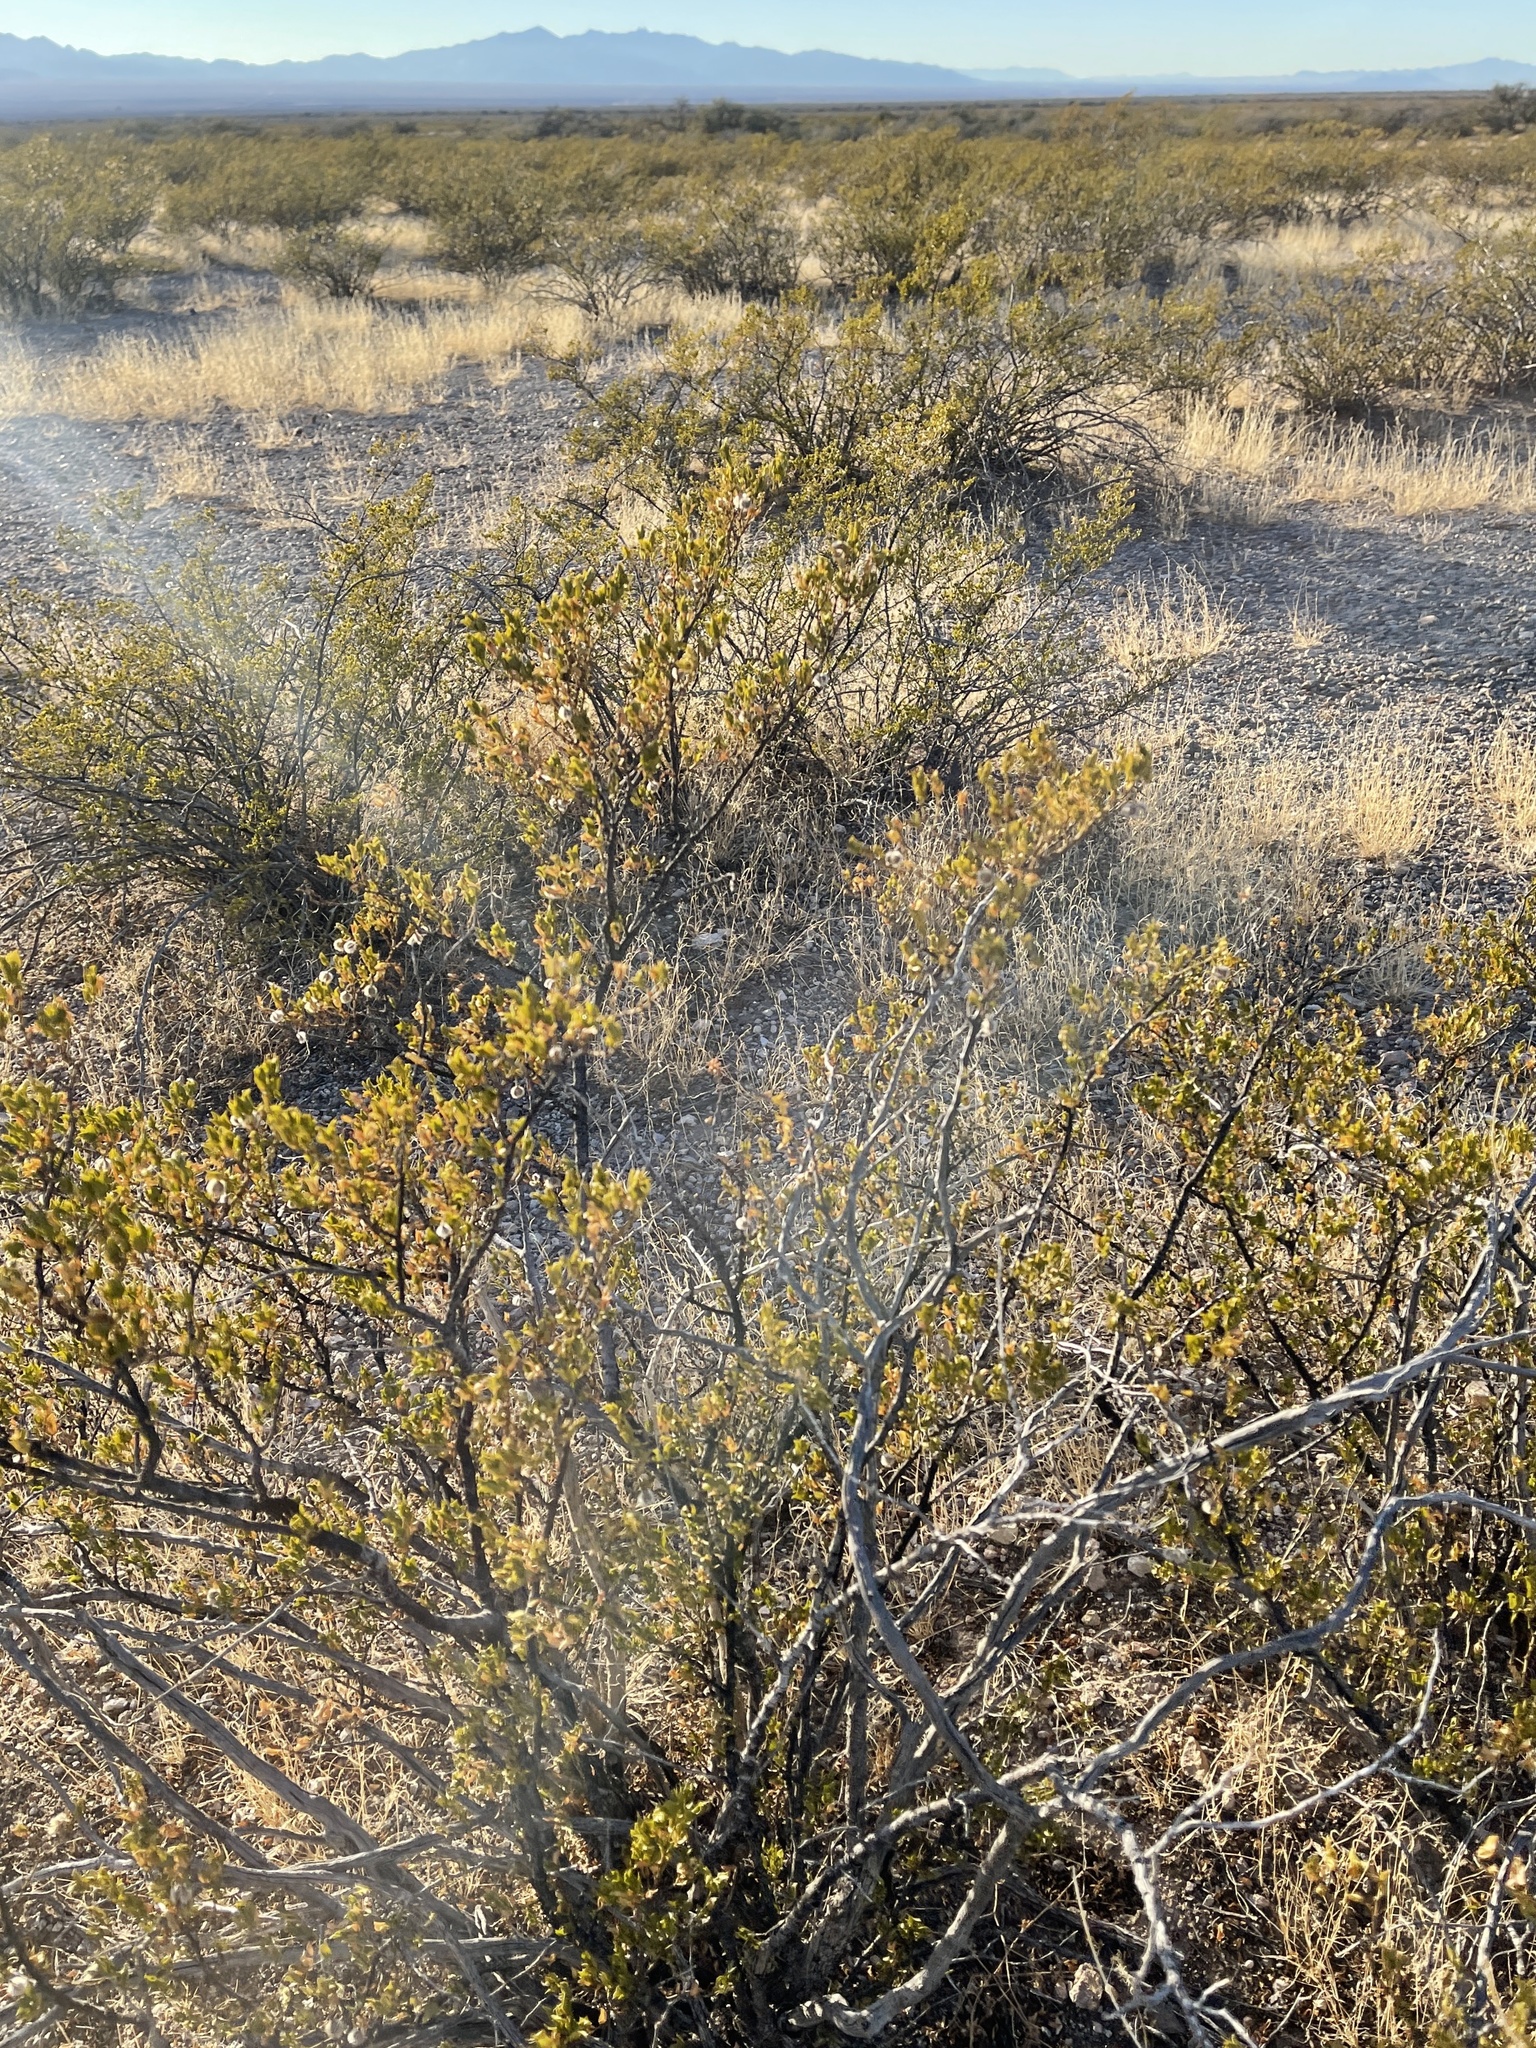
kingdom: Plantae
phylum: Tracheophyta
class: Magnoliopsida
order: Zygophyllales
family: Zygophyllaceae
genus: Larrea
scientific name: Larrea tridentata
